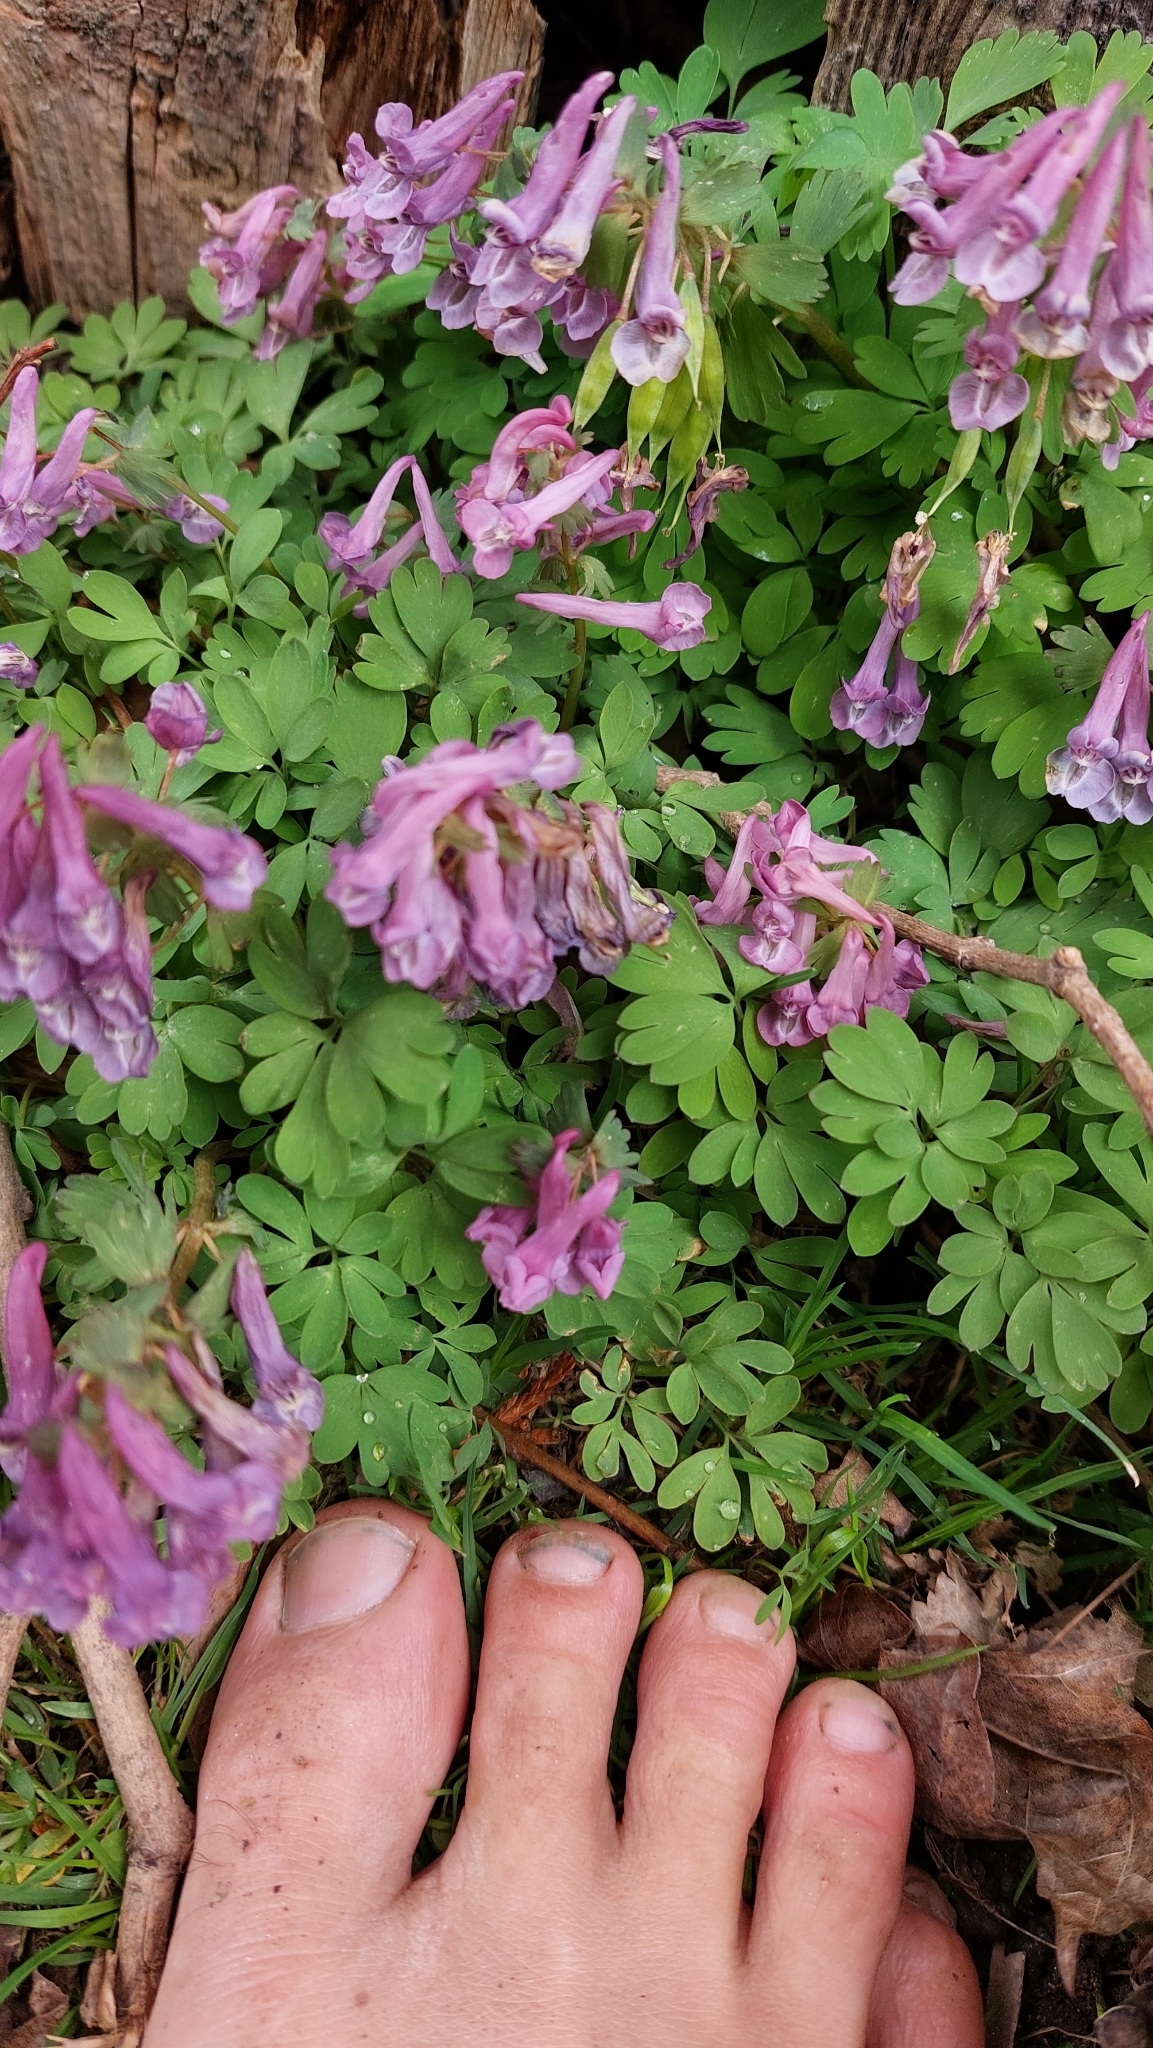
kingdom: Plantae
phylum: Tracheophyta
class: Magnoliopsida
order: Ranunculales
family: Papaveraceae
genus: Corydalis
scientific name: Corydalis solida
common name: Bird-in-a-bush
